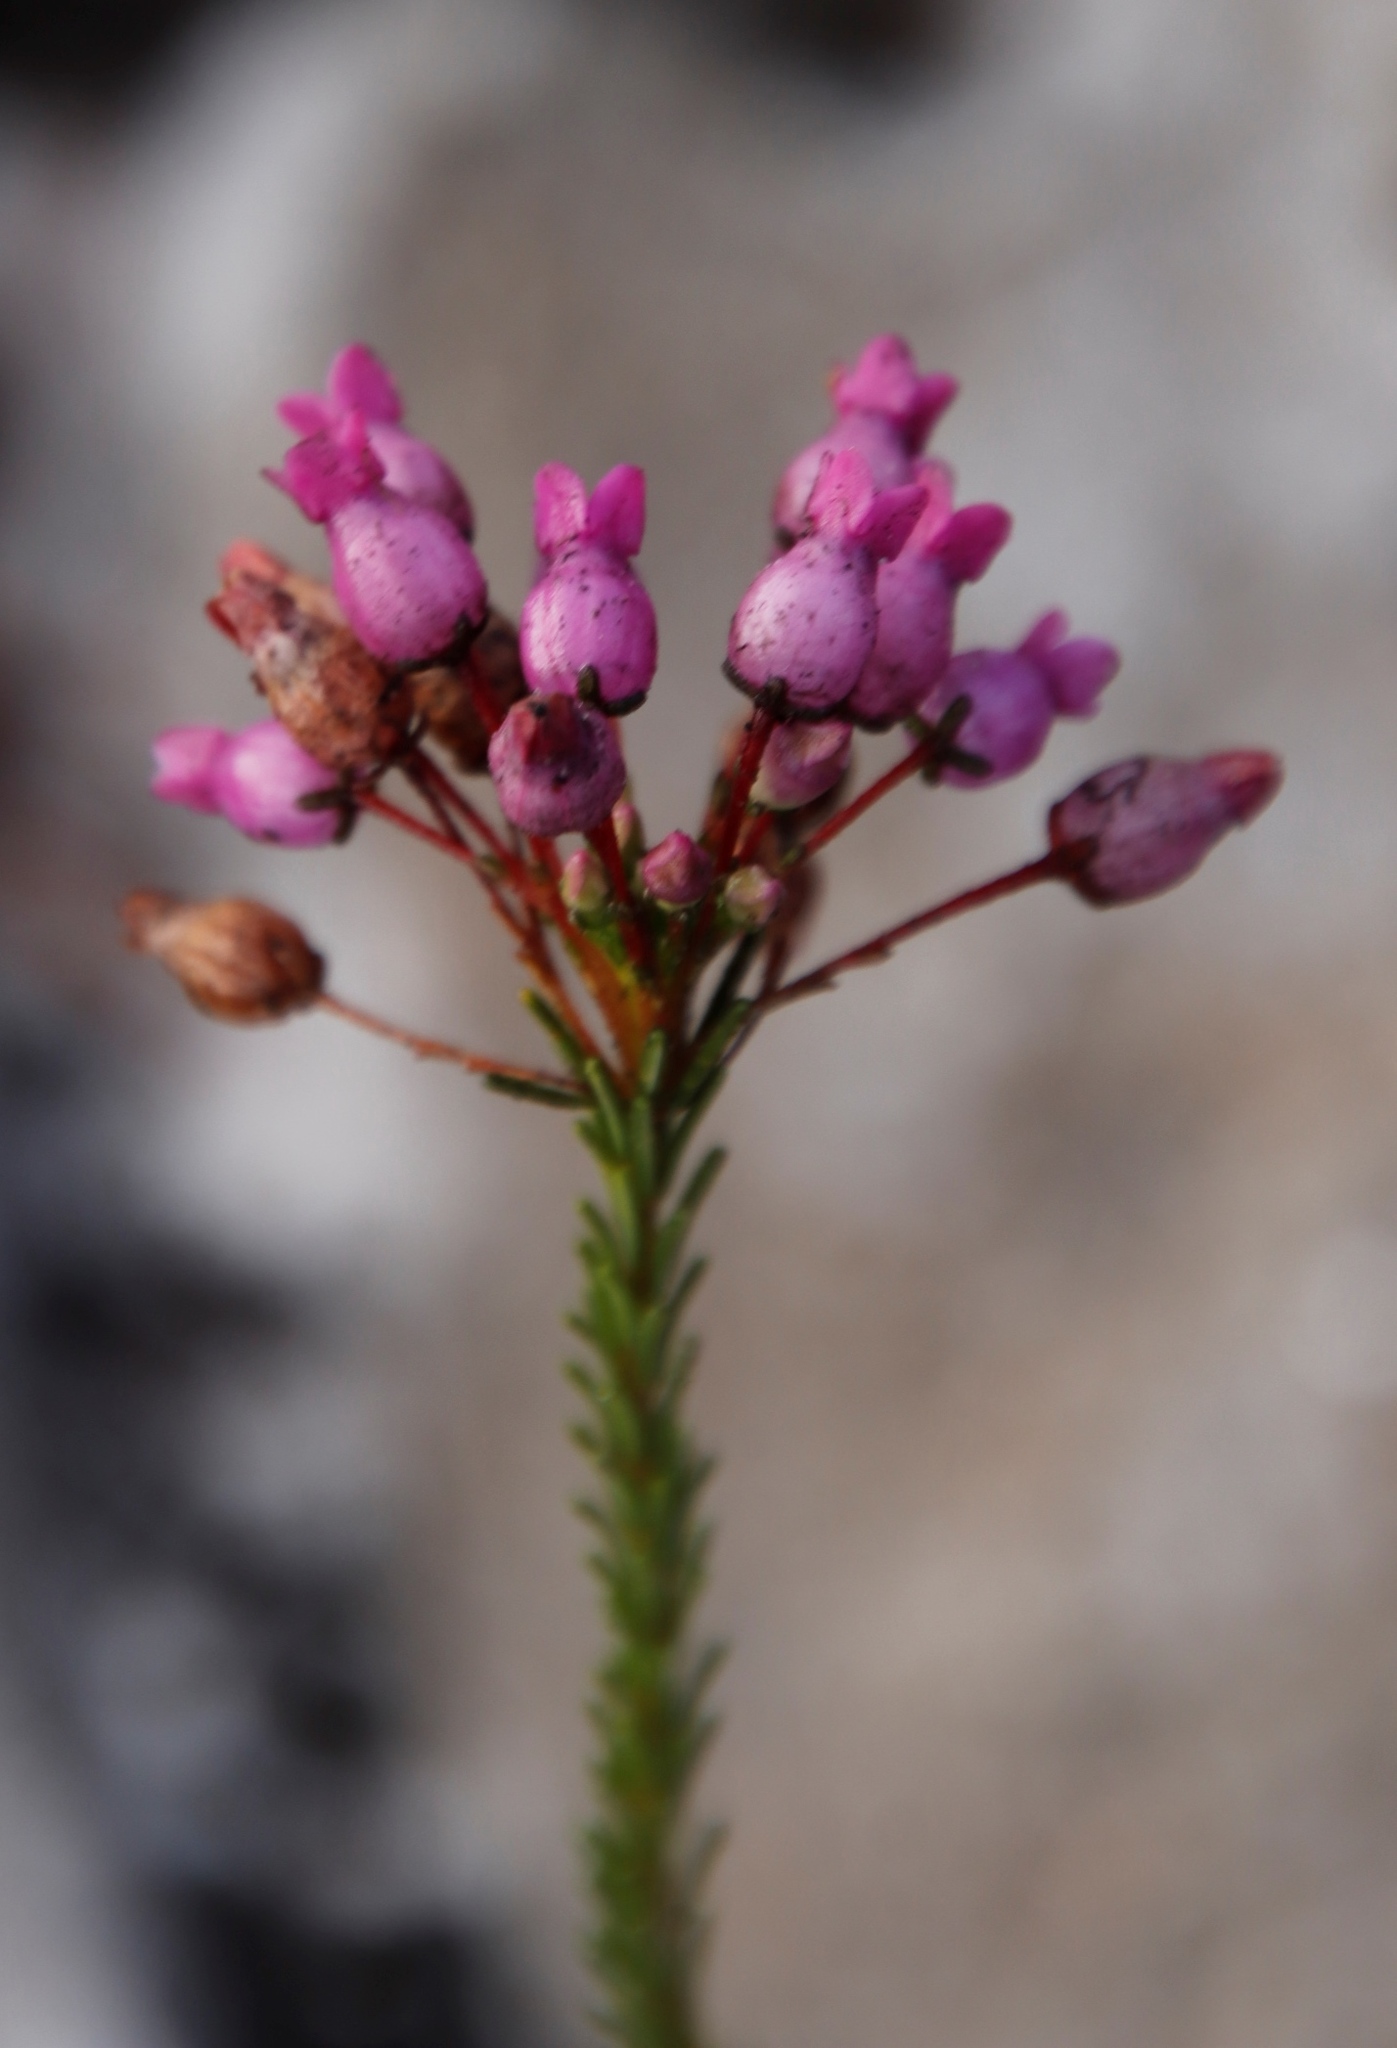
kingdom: Plantae
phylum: Tracheophyta
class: Magnoliopsida
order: Ericales
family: Ericaceae
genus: Erica
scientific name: Erica obliqua
